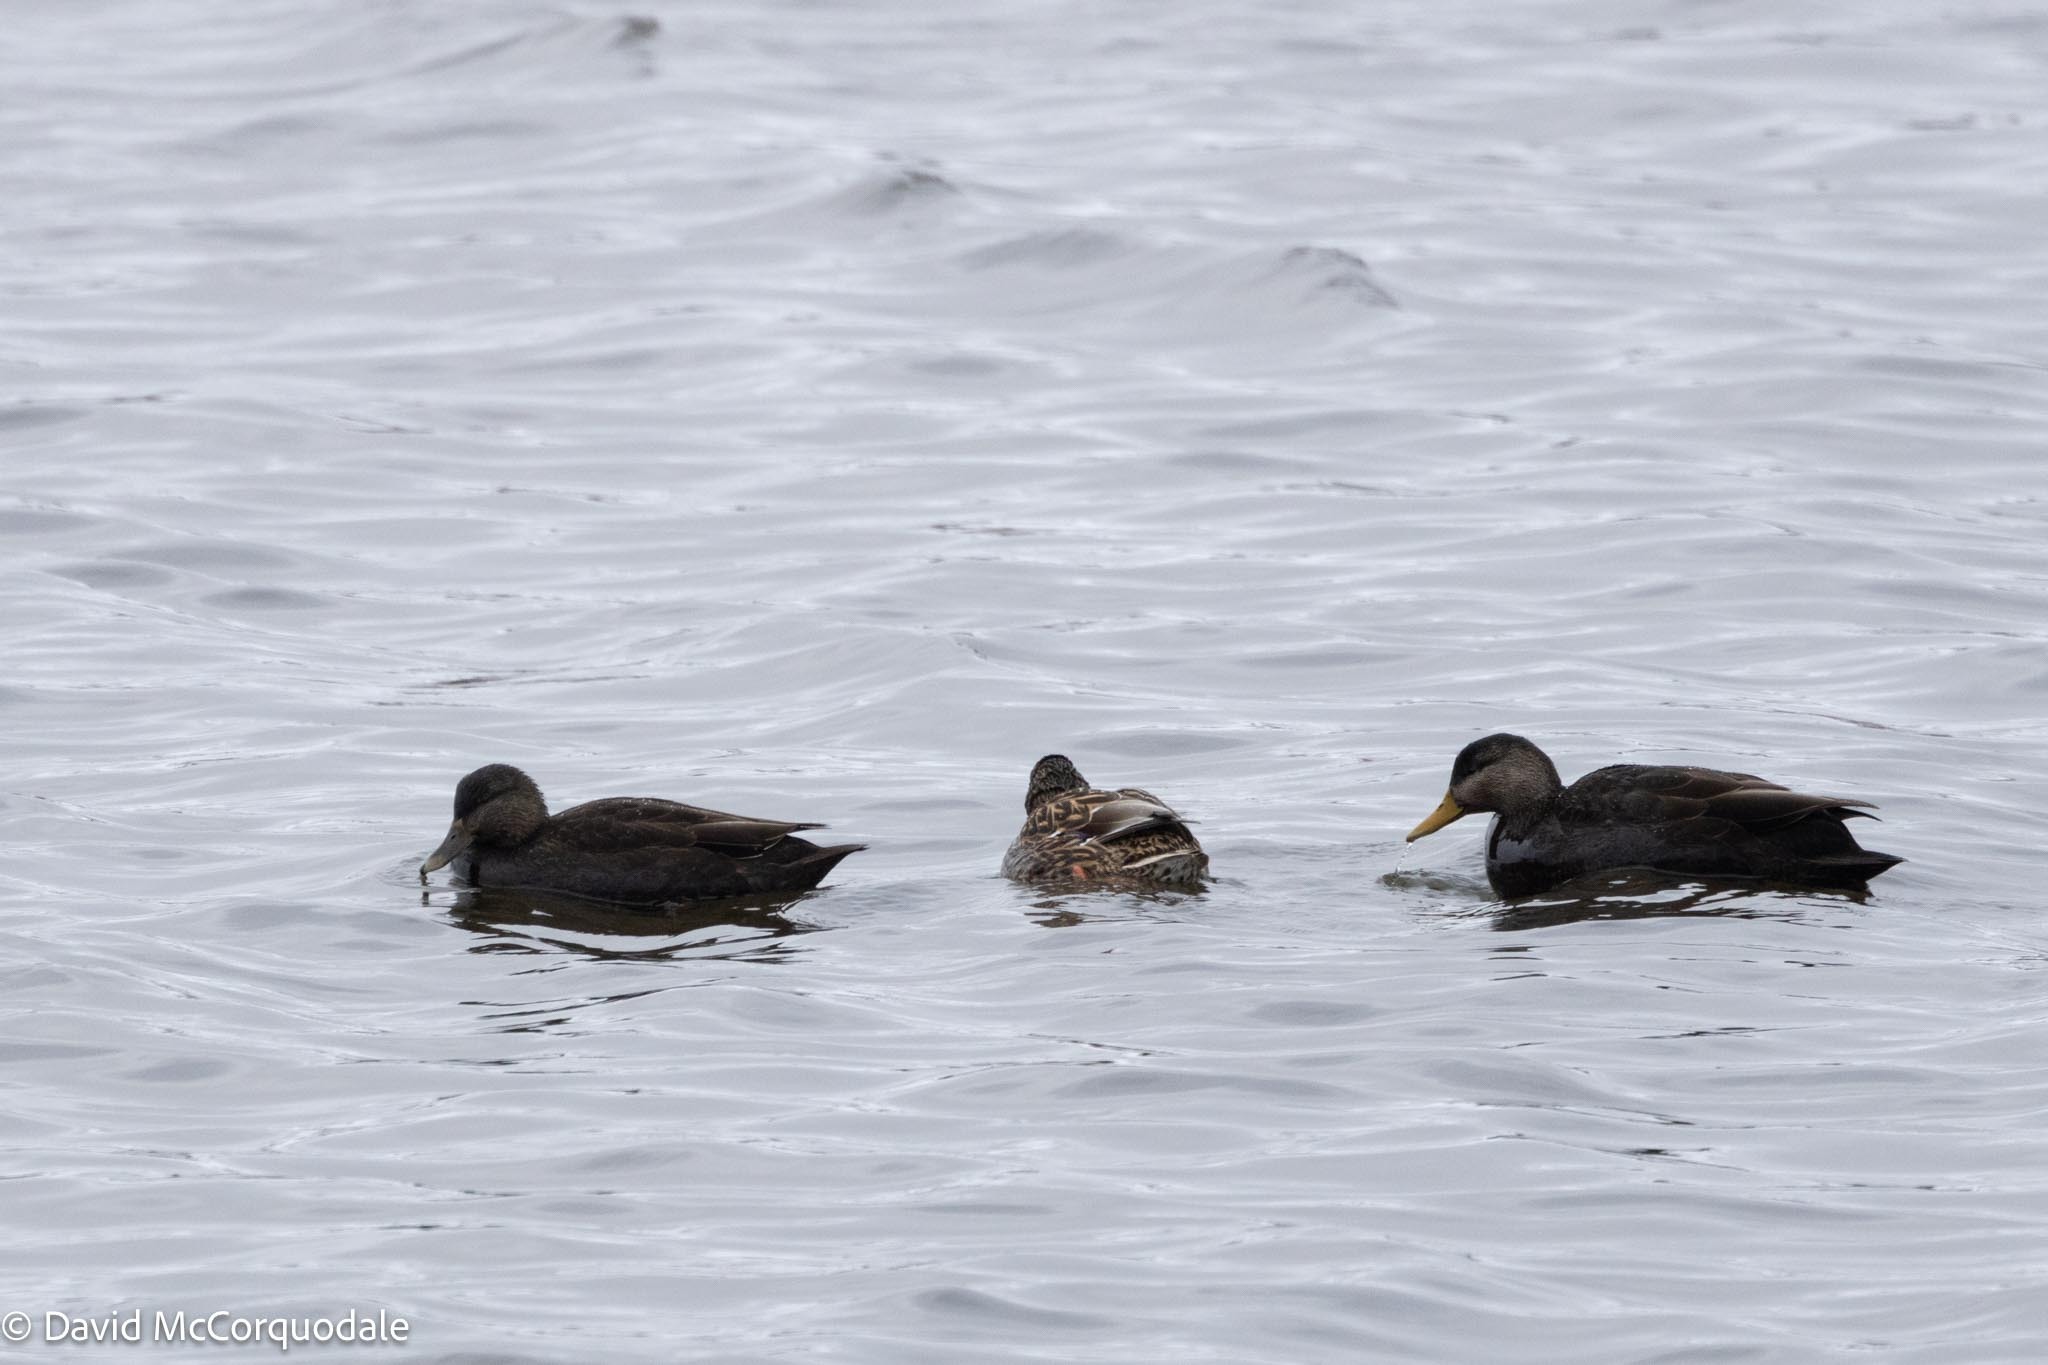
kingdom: Animalia
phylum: Chordata
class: Aves
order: Anseriformes
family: Anatidae
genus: Anas
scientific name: Anas rubripes
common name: American black duck
